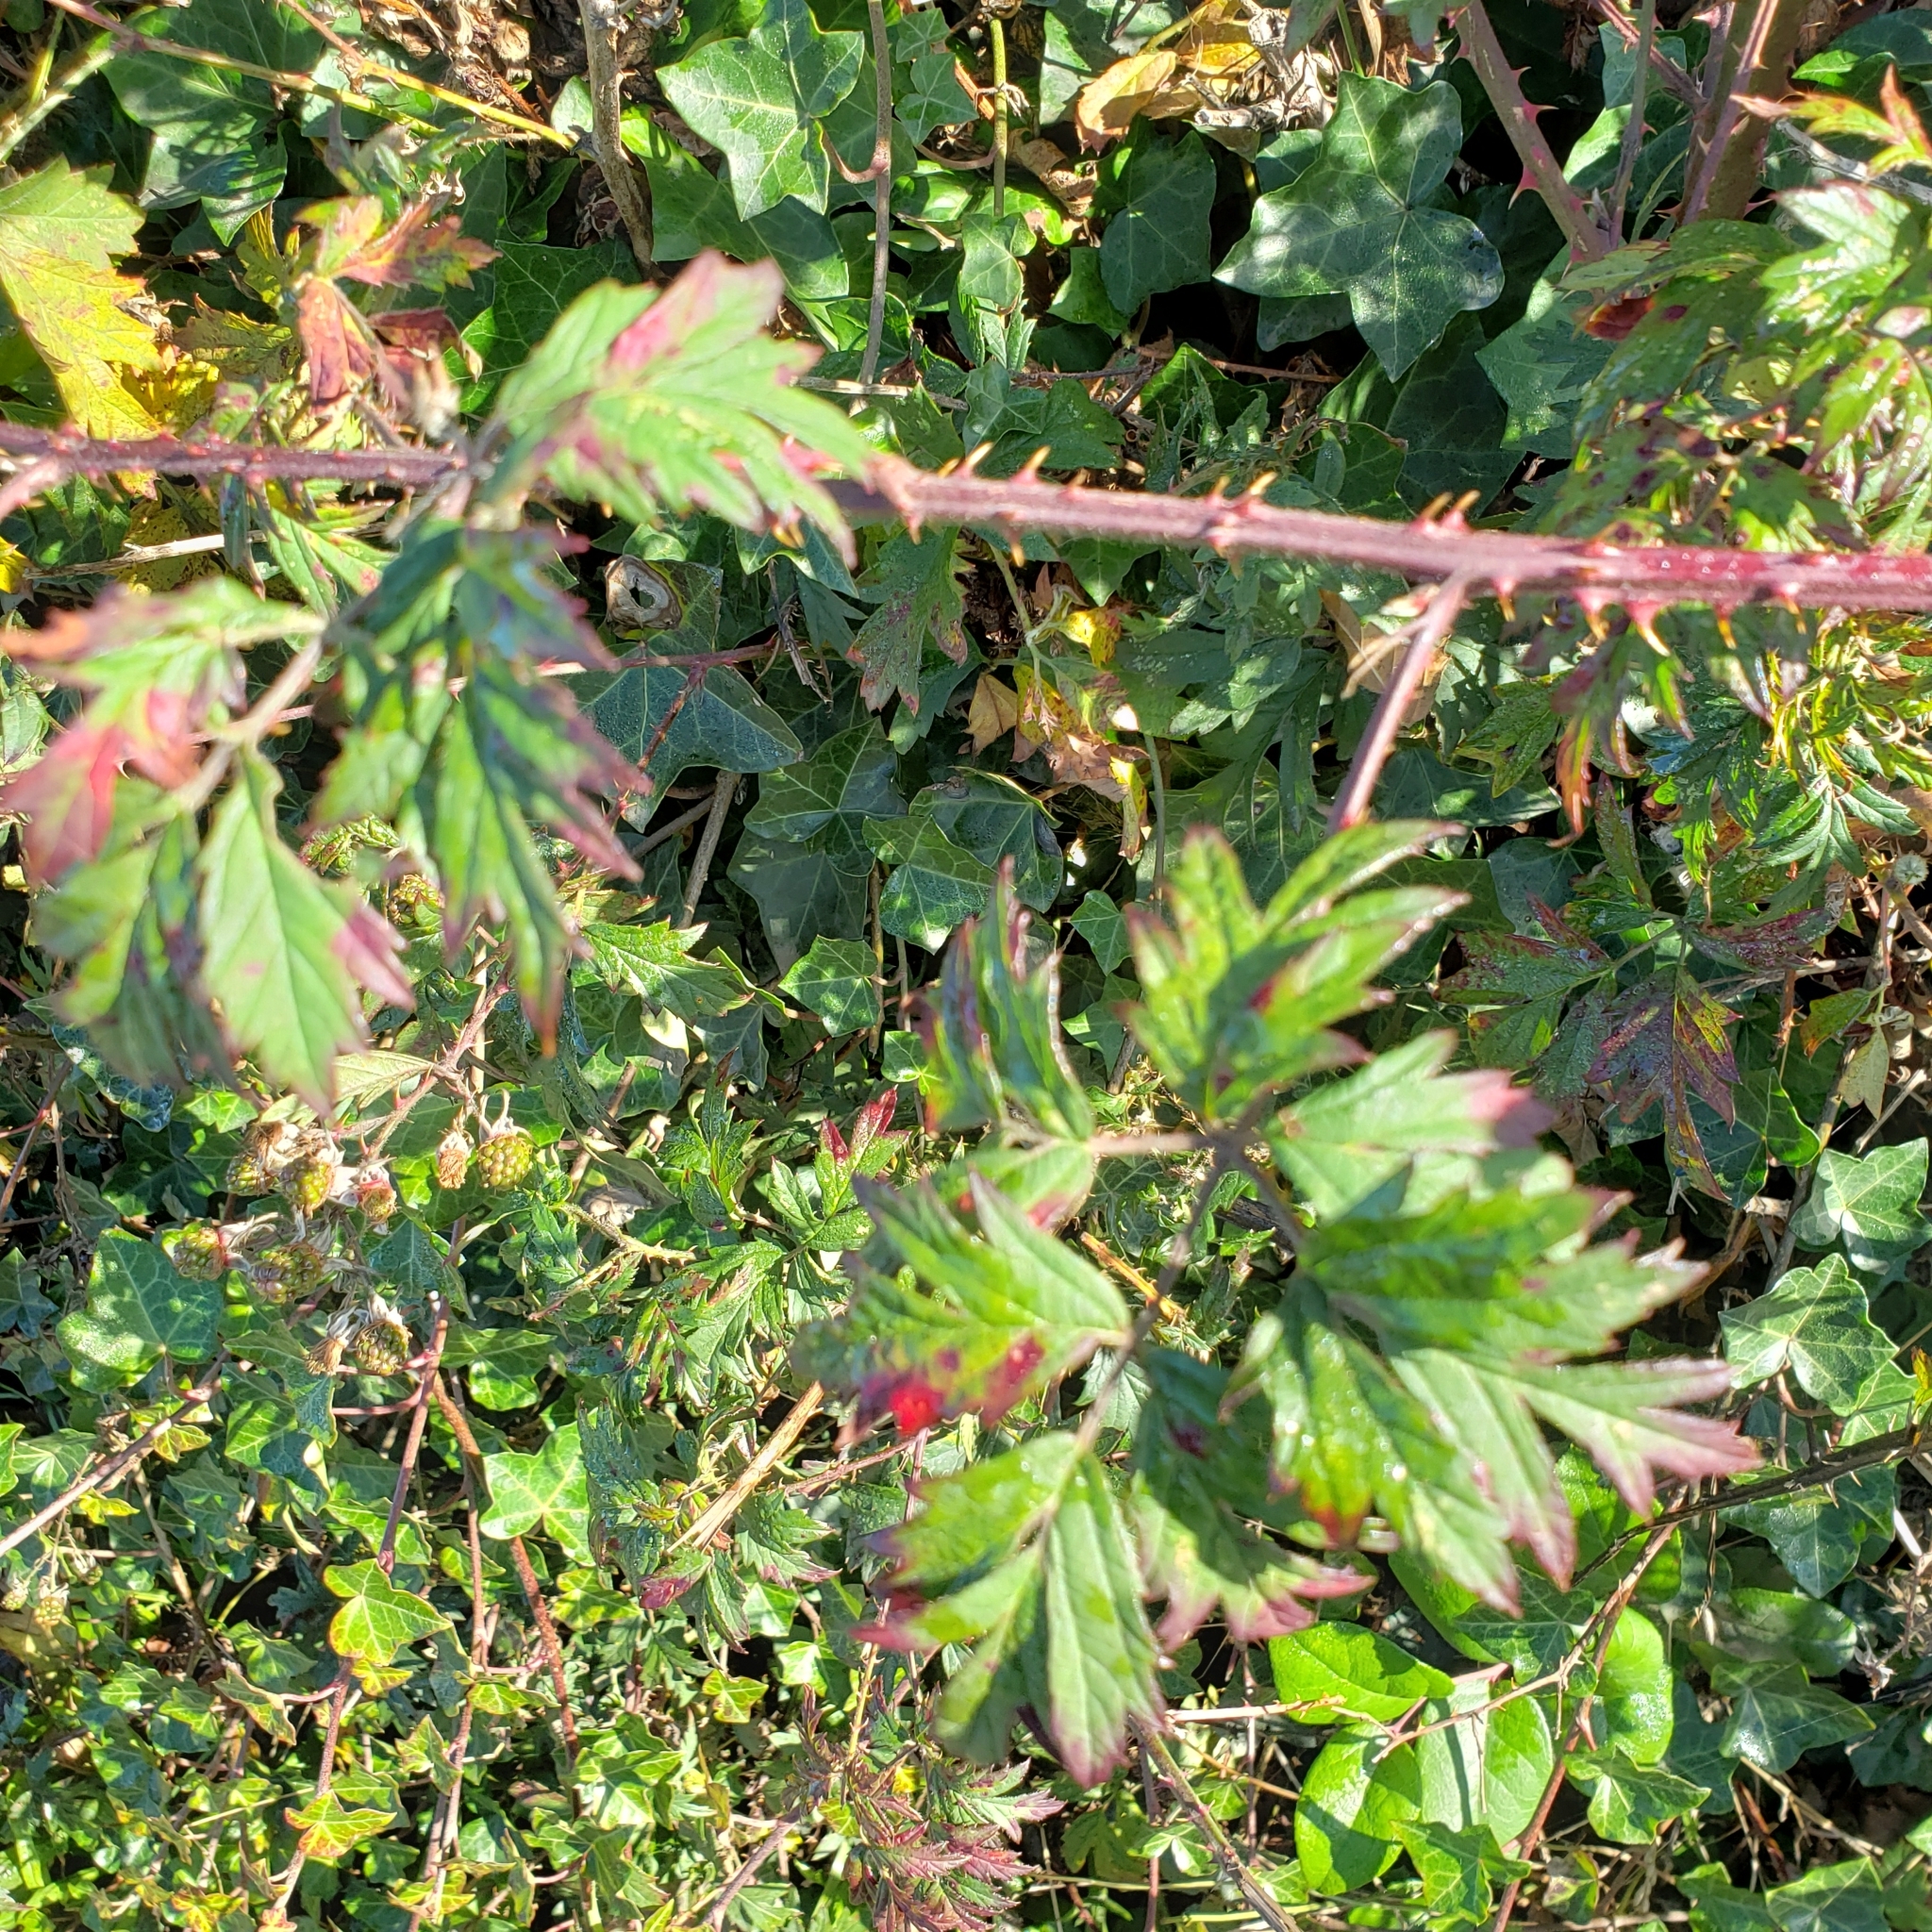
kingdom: Plantae
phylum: Tracheophyta
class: Magnoliopsida
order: Rosales
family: Rosaceae
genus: Rubus
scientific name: Rubus laciniatus
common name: Evergreen blackberry
